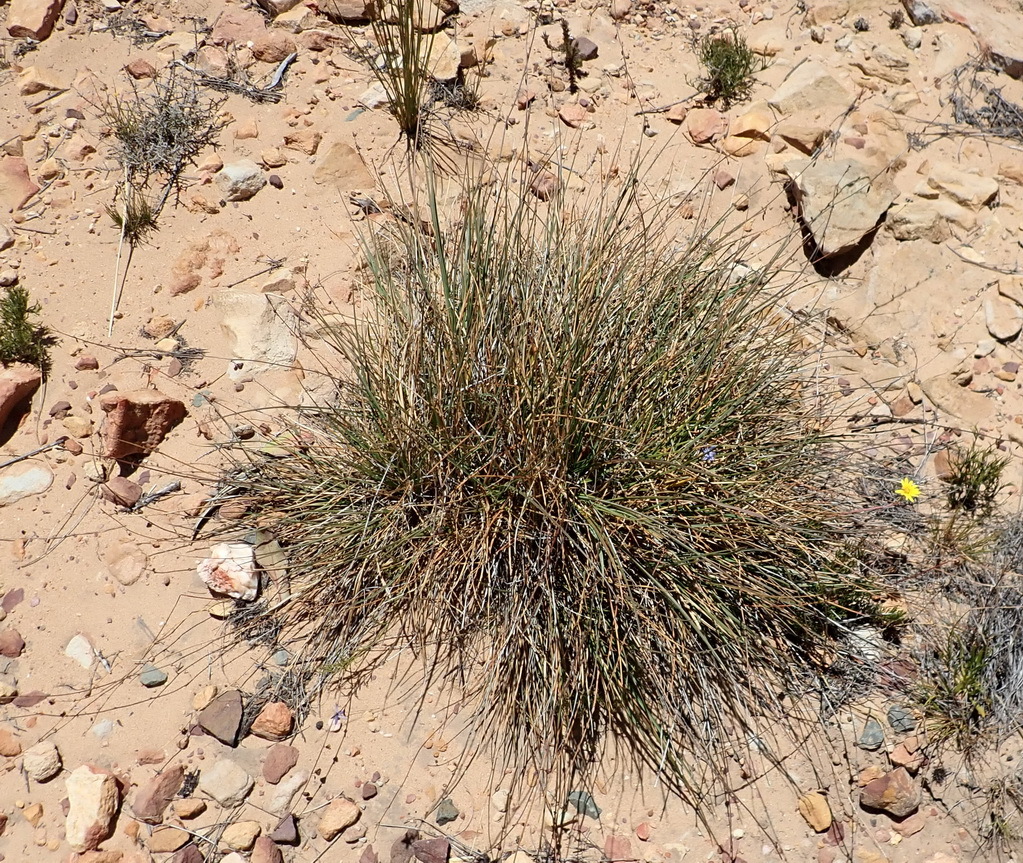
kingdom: Plantae
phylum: Tracheophyta
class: Liliopsida
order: Asparagales
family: Asphodelaceae
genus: Caesia
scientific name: Caesia contorta
